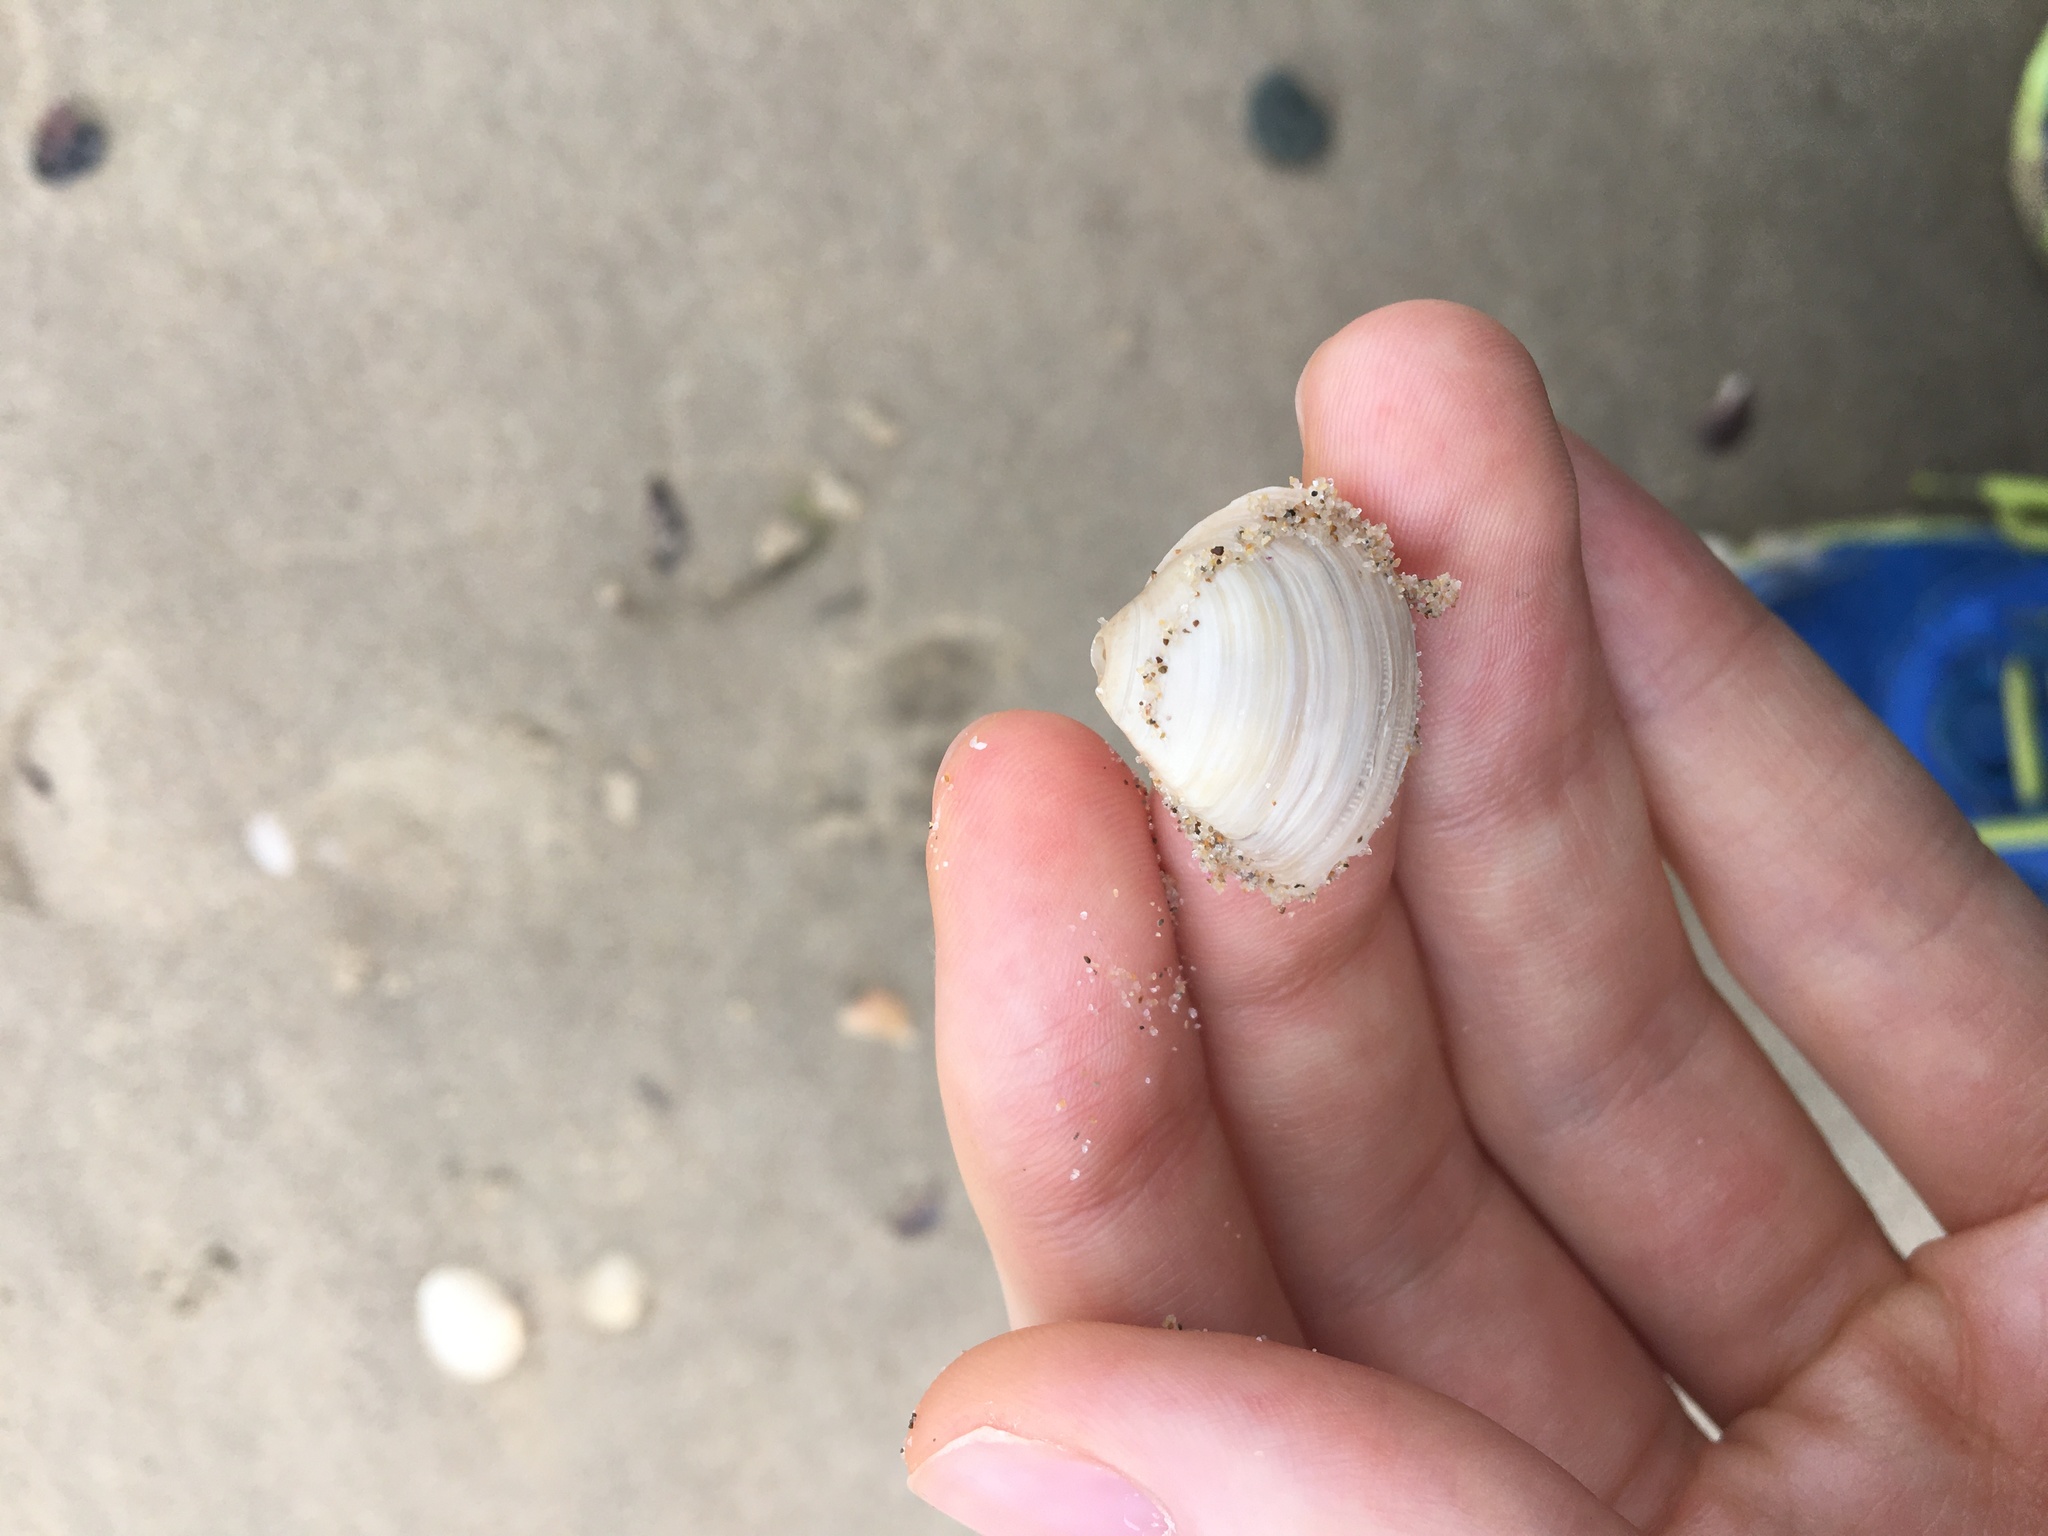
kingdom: Animalia
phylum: Mollusca
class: Bivalvia
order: Venerida
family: Mactridae
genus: Spisula
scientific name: Spisula trigonella
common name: Trigonal mactra
